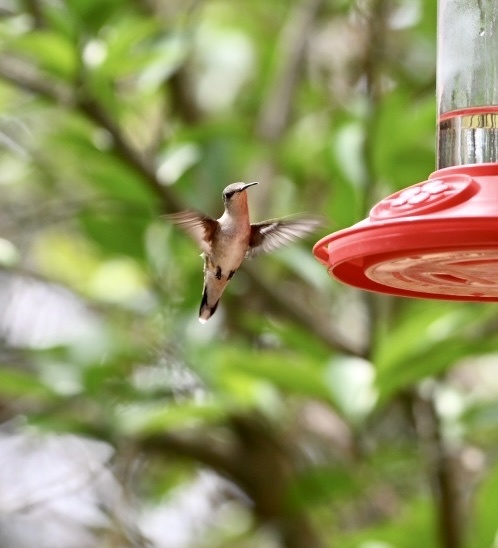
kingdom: Animalia
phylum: Chordata
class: Aves
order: Apodiformes
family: Trochilidae
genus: Archilochus
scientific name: Archilochus colubris
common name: Ruby-throated hummingbird
